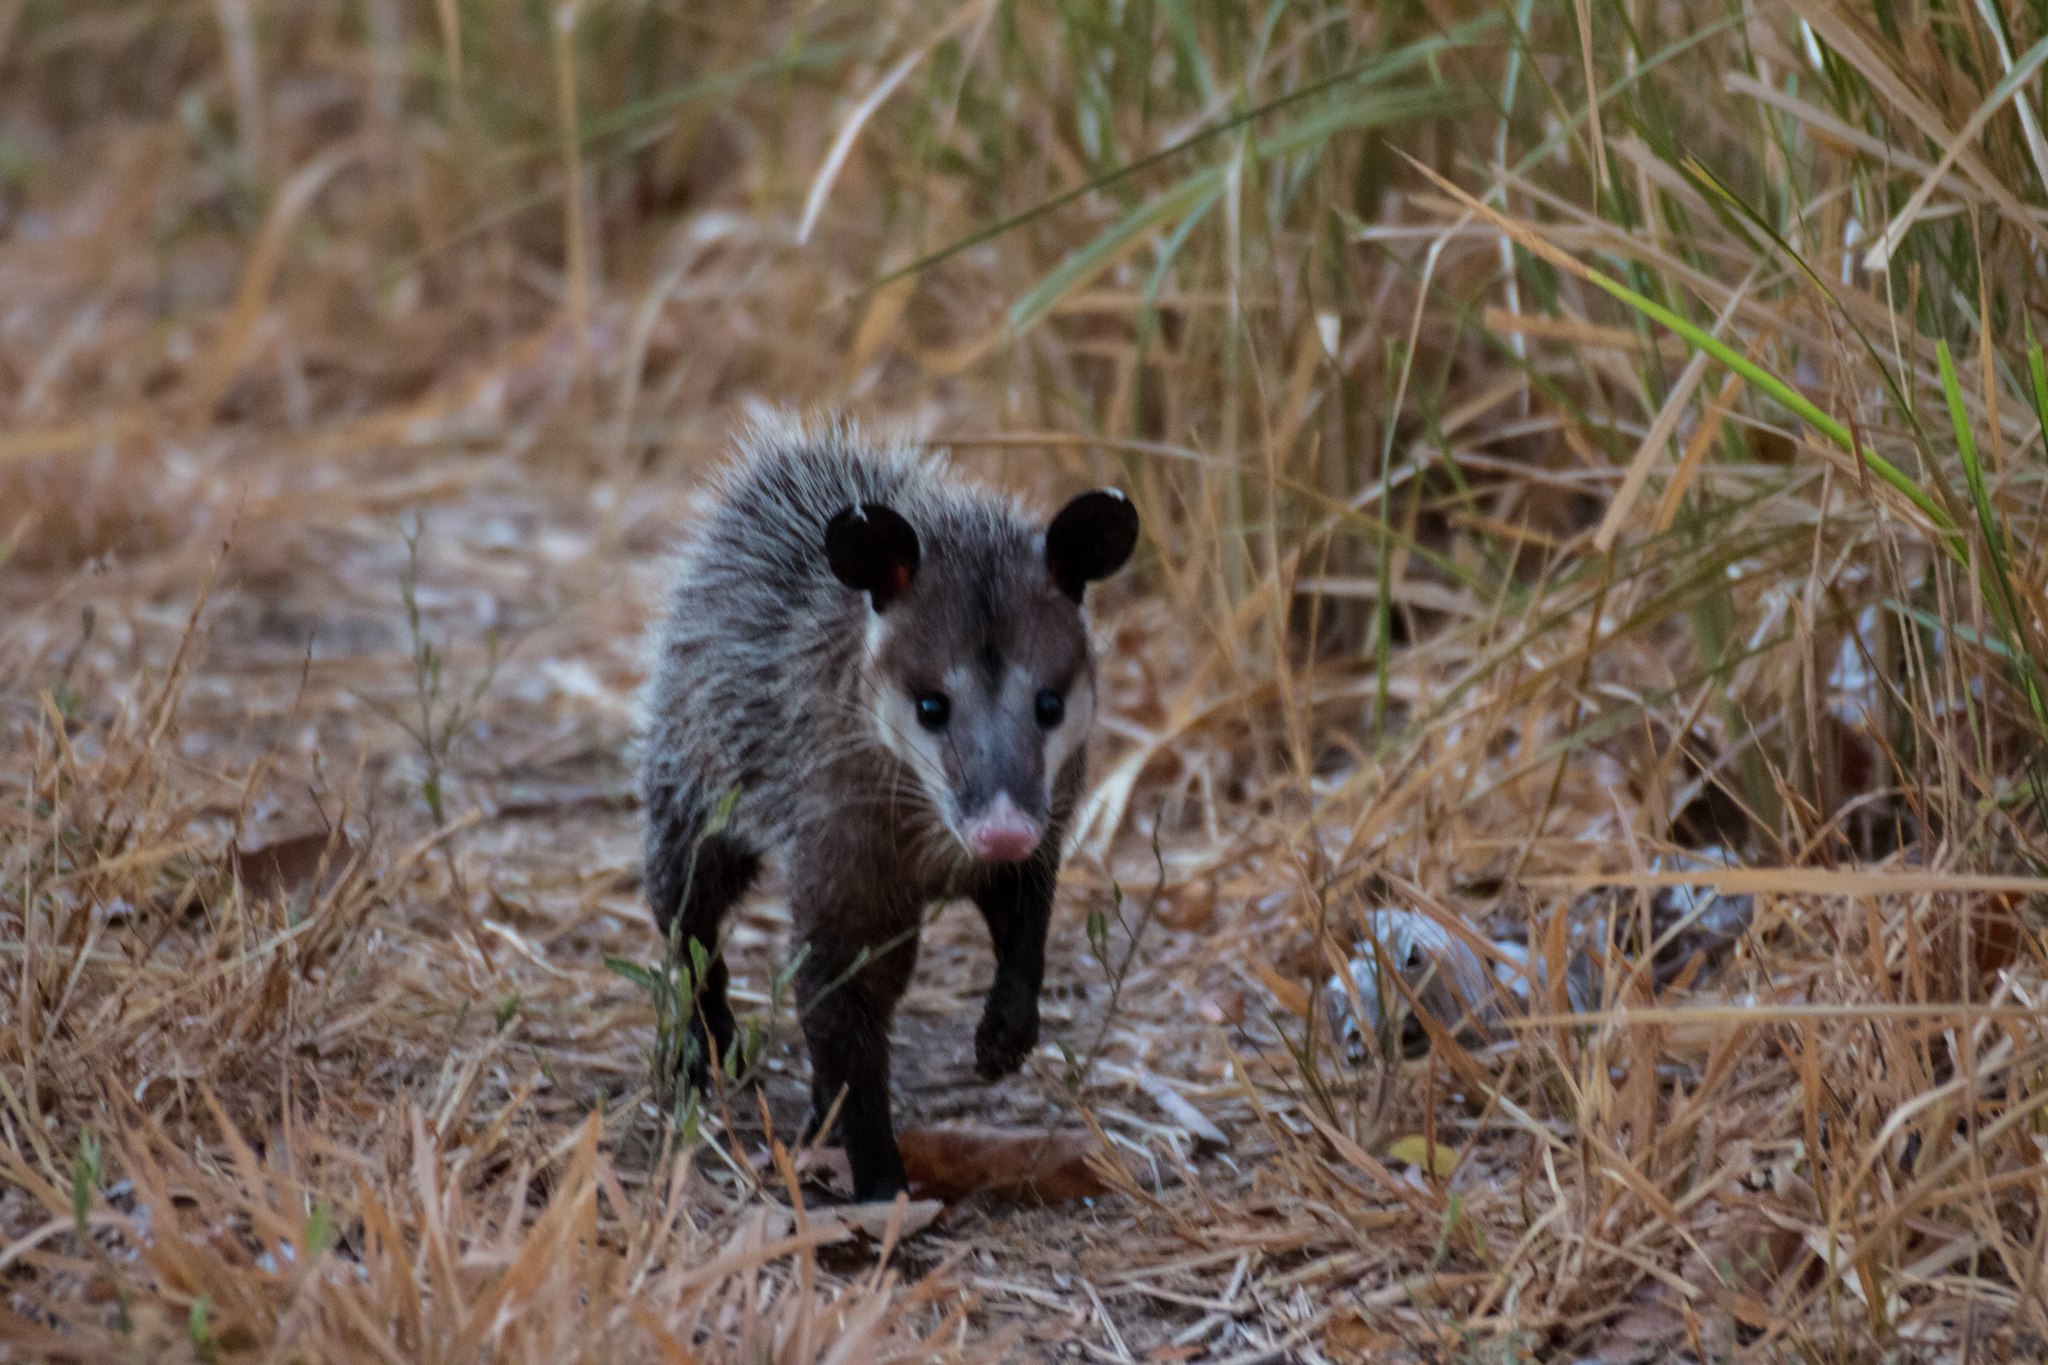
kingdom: Animalia
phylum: Chordata
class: Mammalia
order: Didelphimorphia
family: Didelphidae
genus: Didelphis
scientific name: Didelphis marsupialis
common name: Common opossum
